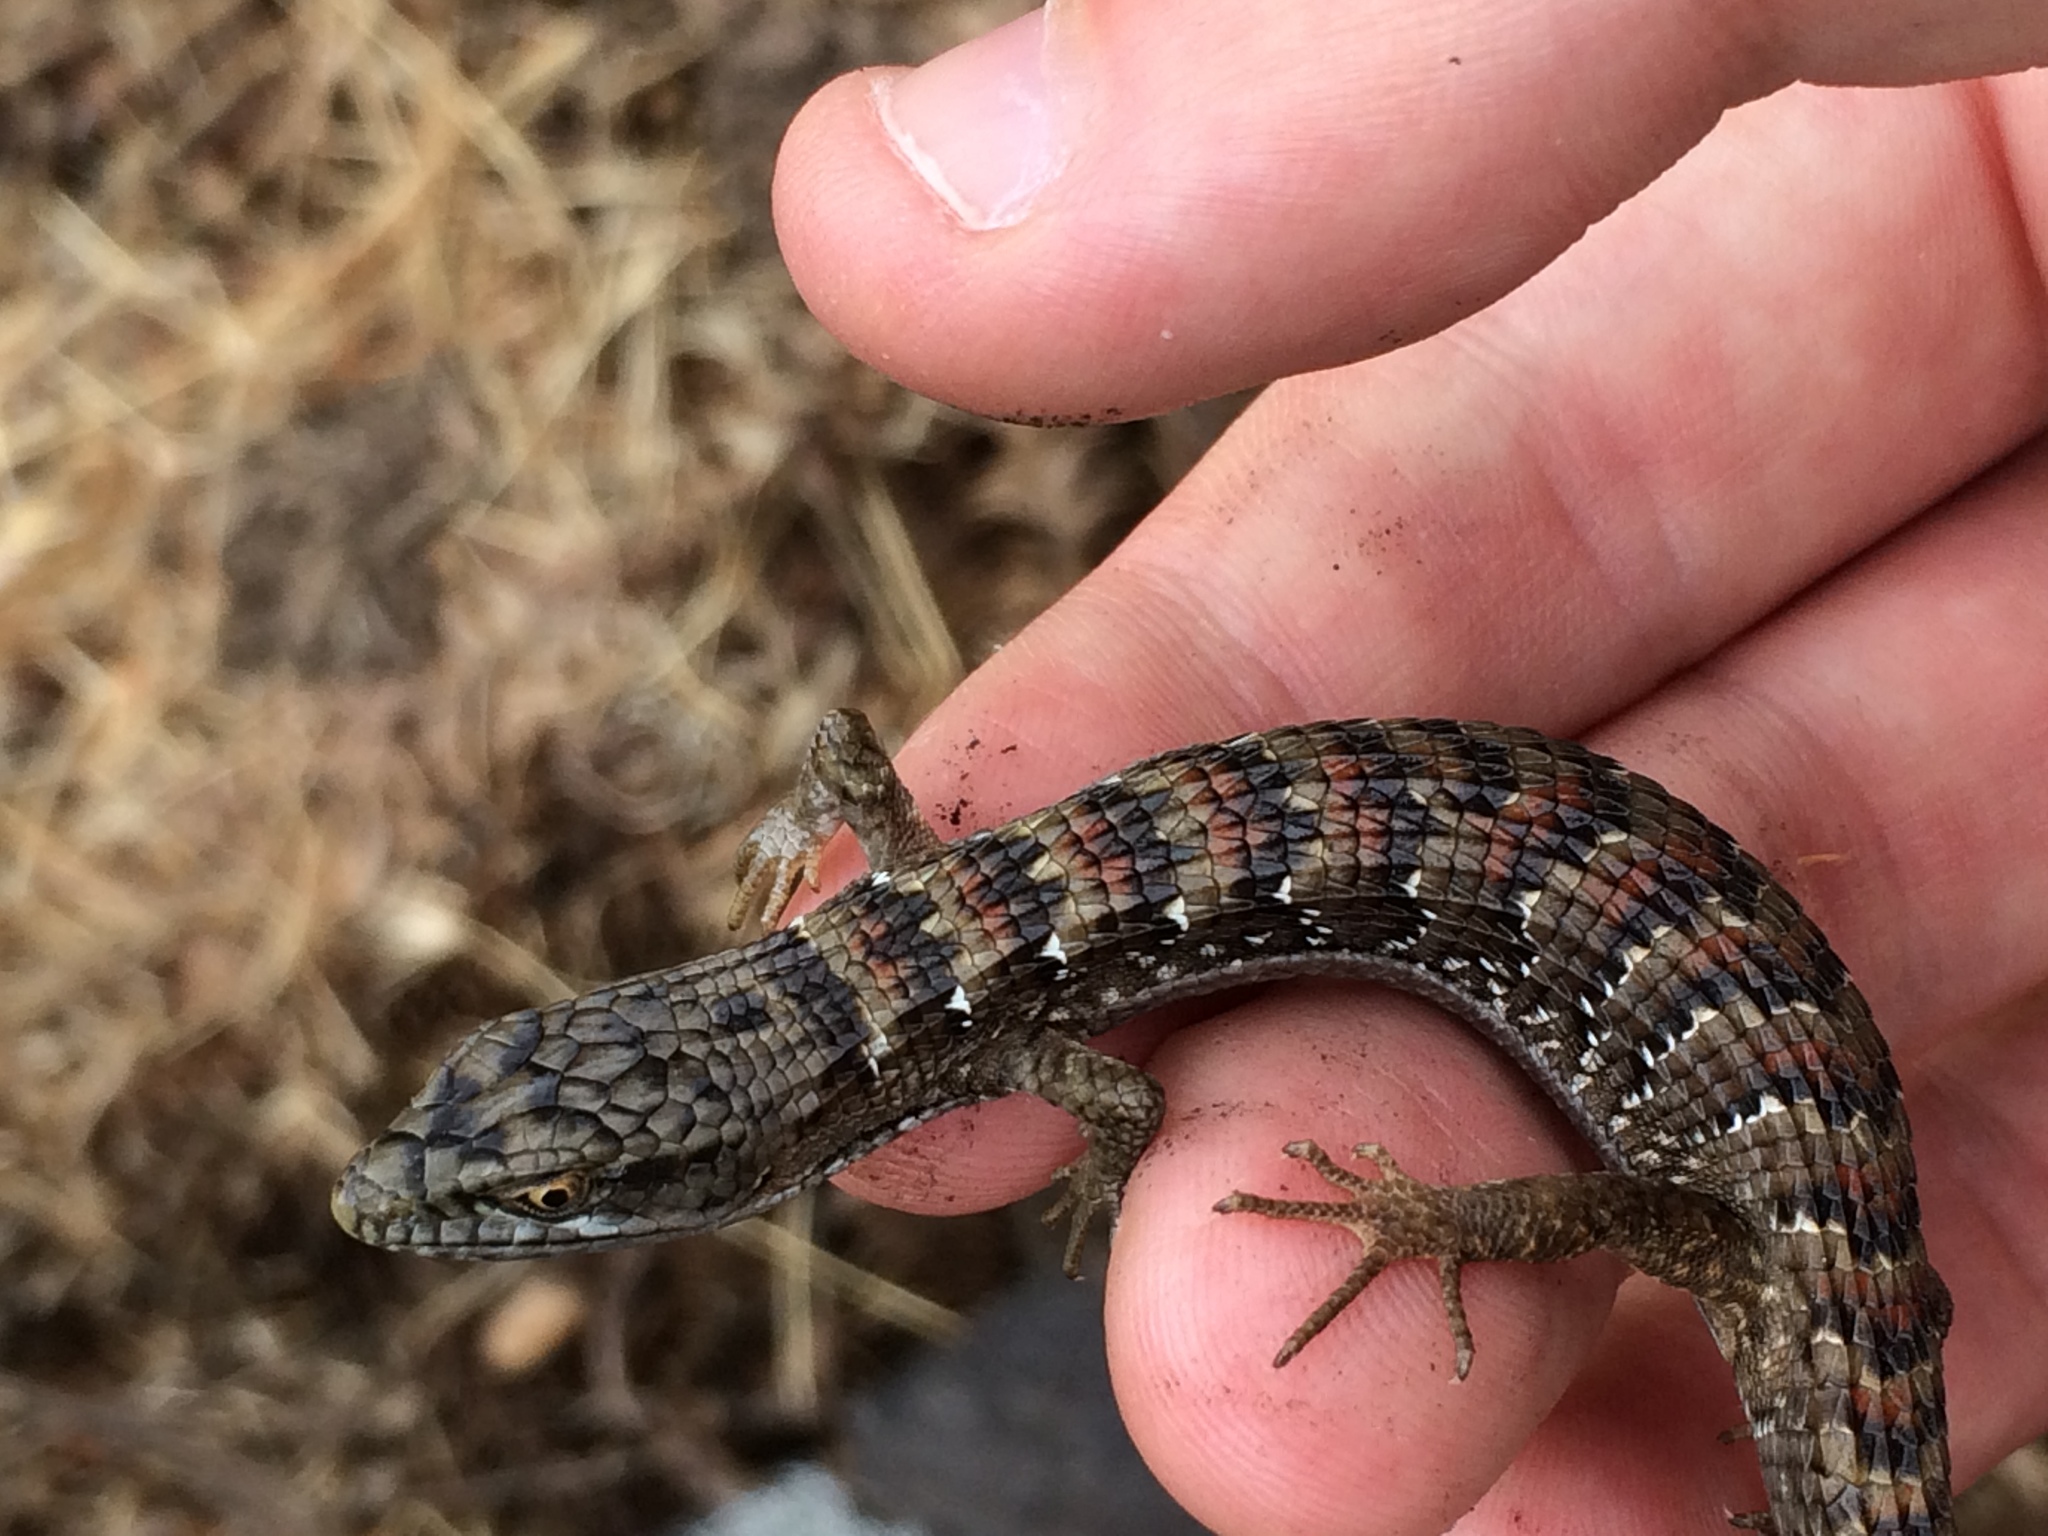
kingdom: Animalia
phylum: Chordata
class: Squamata
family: Anguidae
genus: Elgaria
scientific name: Elgaria multicarinata
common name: Southern alligator lizard
